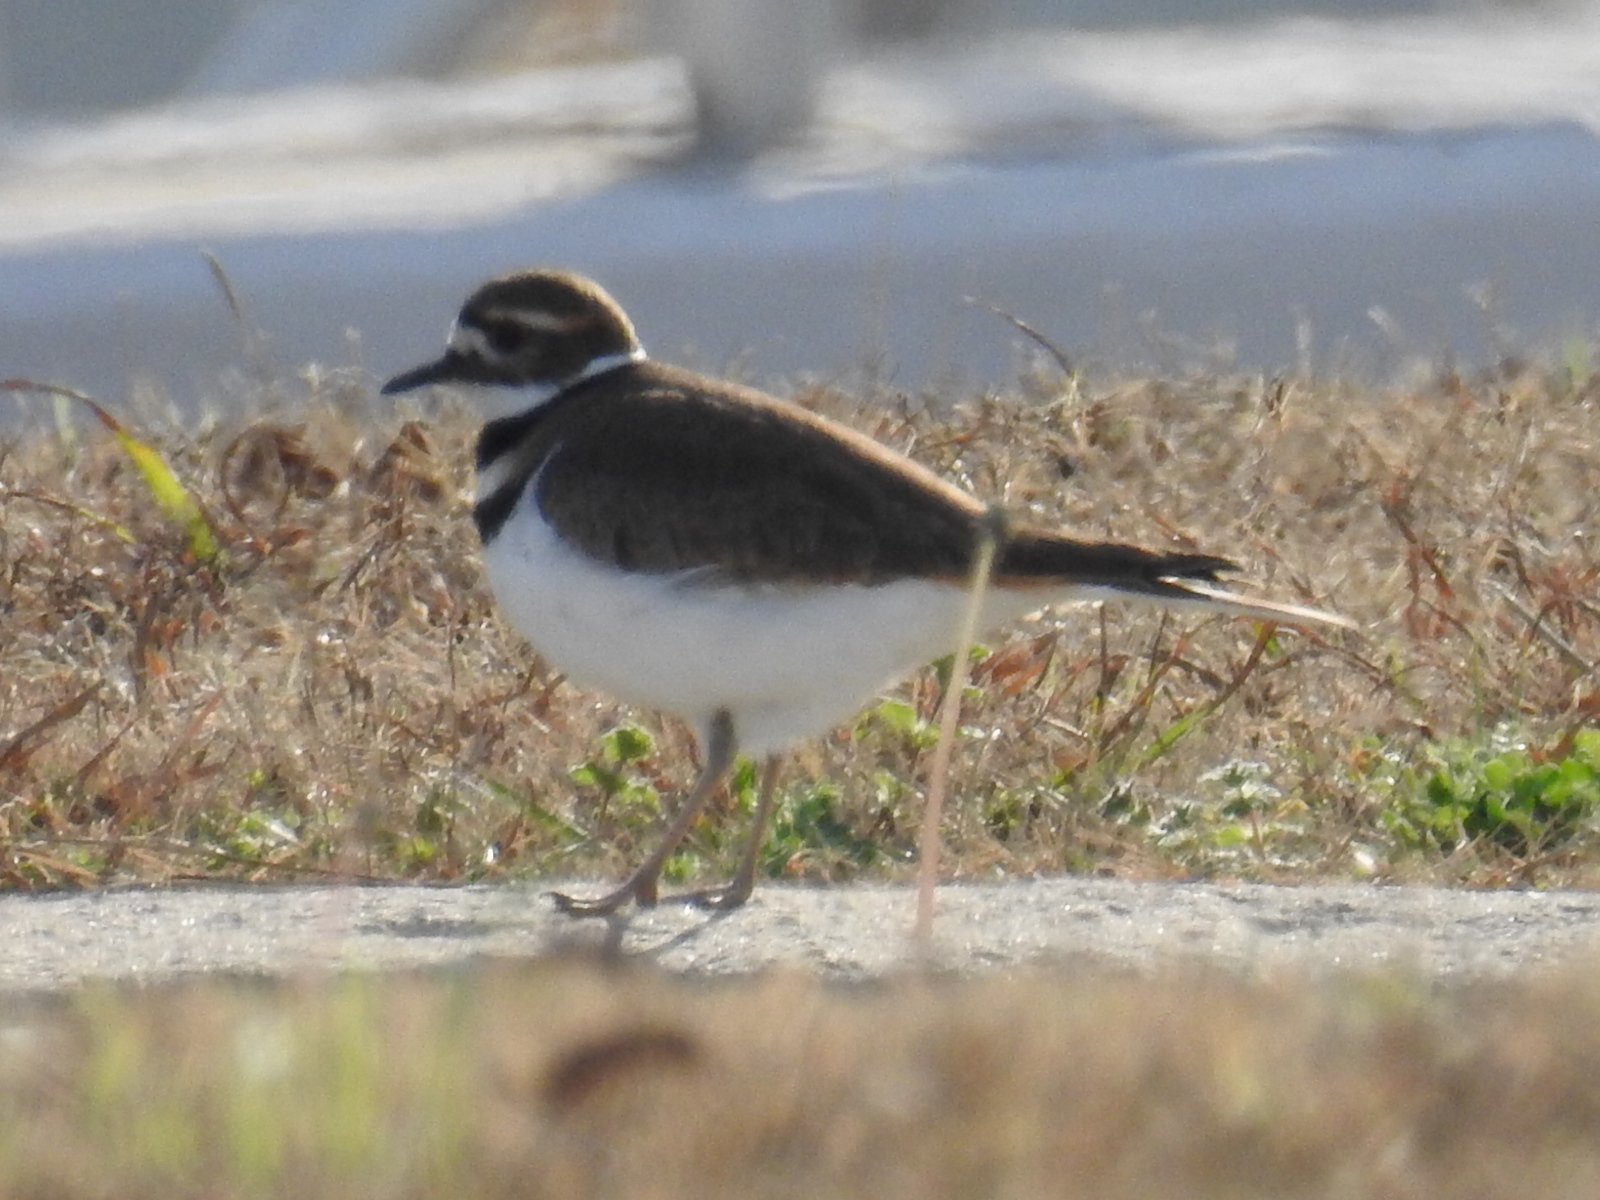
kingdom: Animalia
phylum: Chordata
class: Aves
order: Charadriiformes
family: Charadriidae
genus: Charadrius
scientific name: Charadrius vociferus
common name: Killdeer
